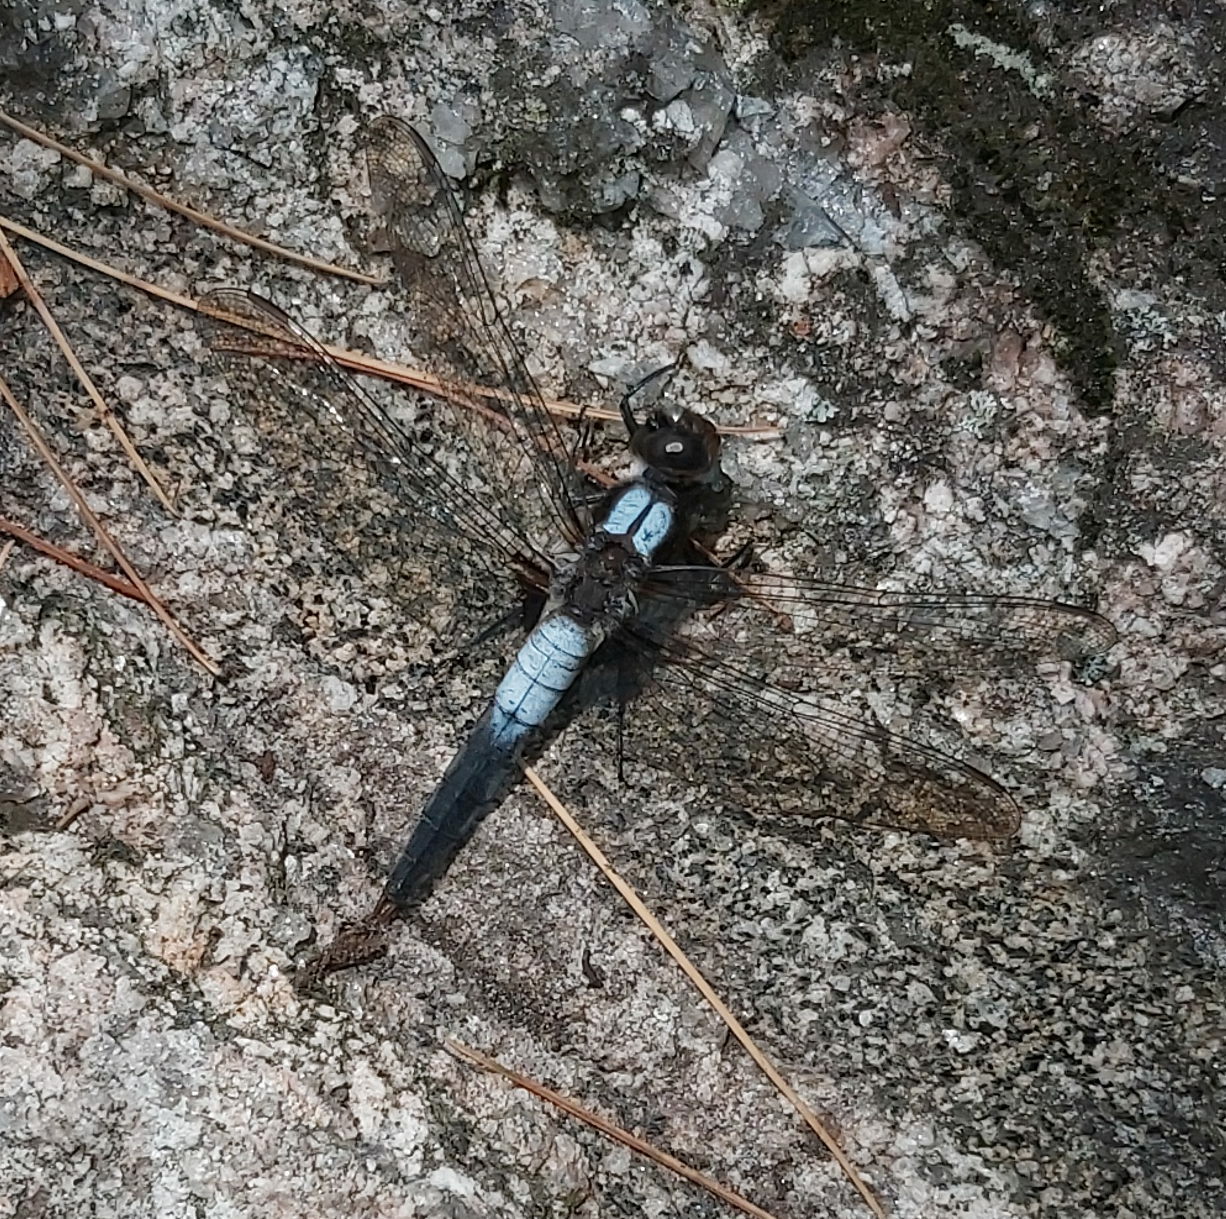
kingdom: Animalia
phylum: Arthropoda
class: Insecta
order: Odonata
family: Libellulidae
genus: Ladona
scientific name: Ladona julia
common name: Chalk-fronted corporal
